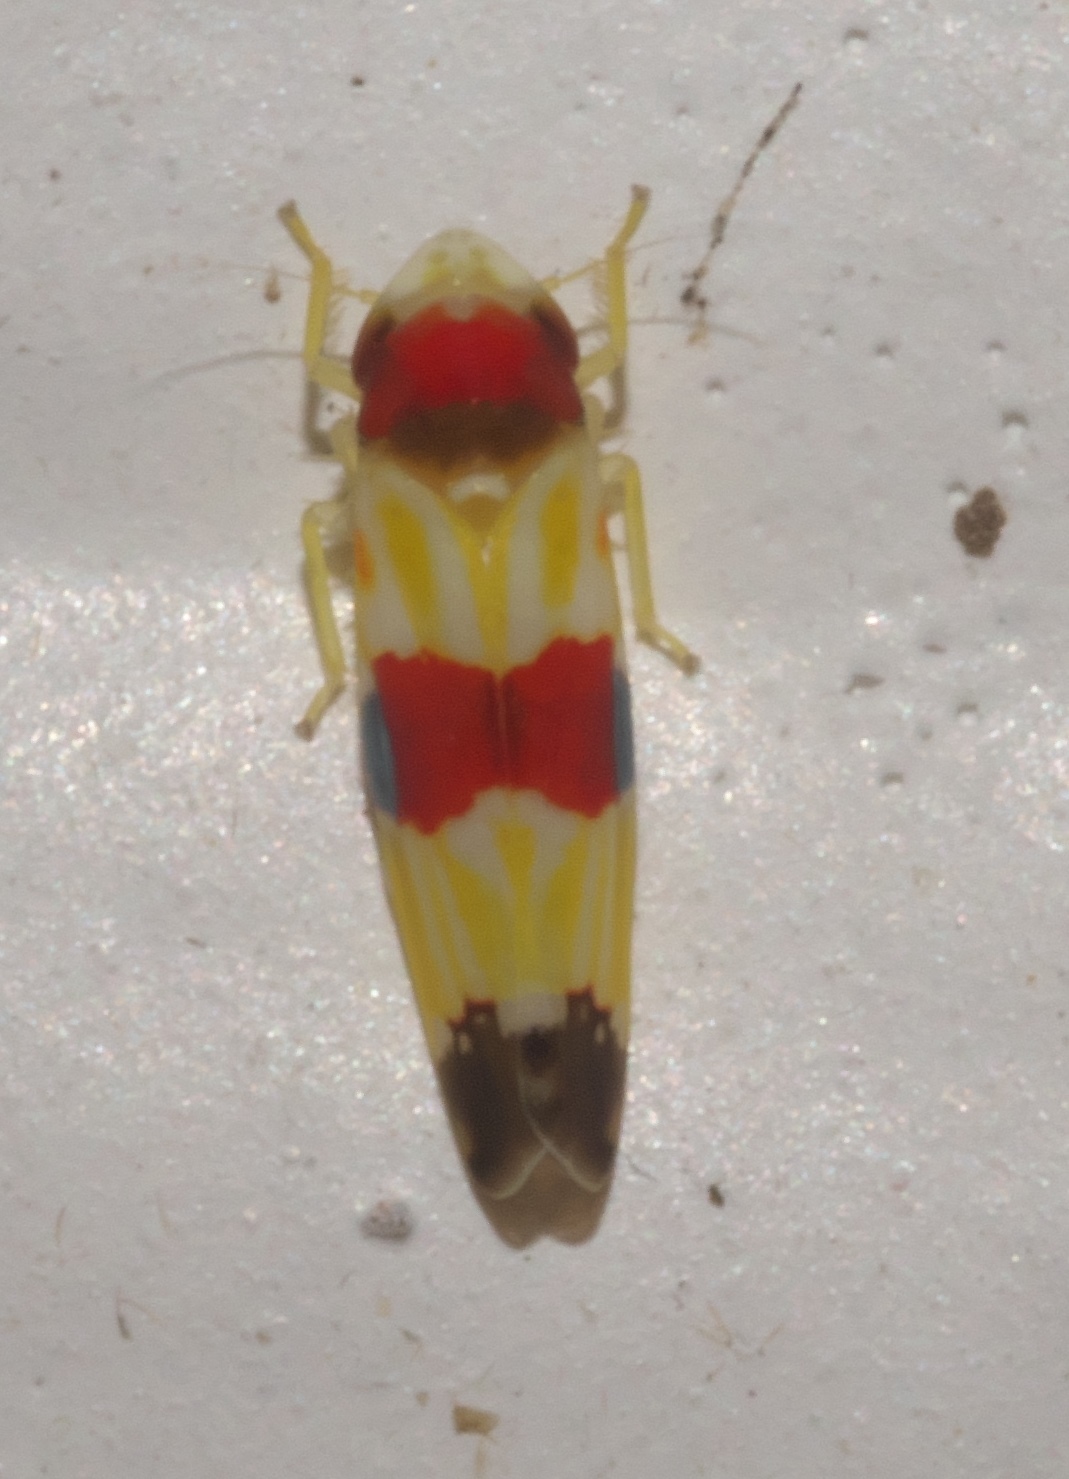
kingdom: Animalia
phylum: Arthropoda
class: Insecta
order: Hemiptera
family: Cicadellidae
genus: Erythroneura
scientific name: Erythroneura diva
